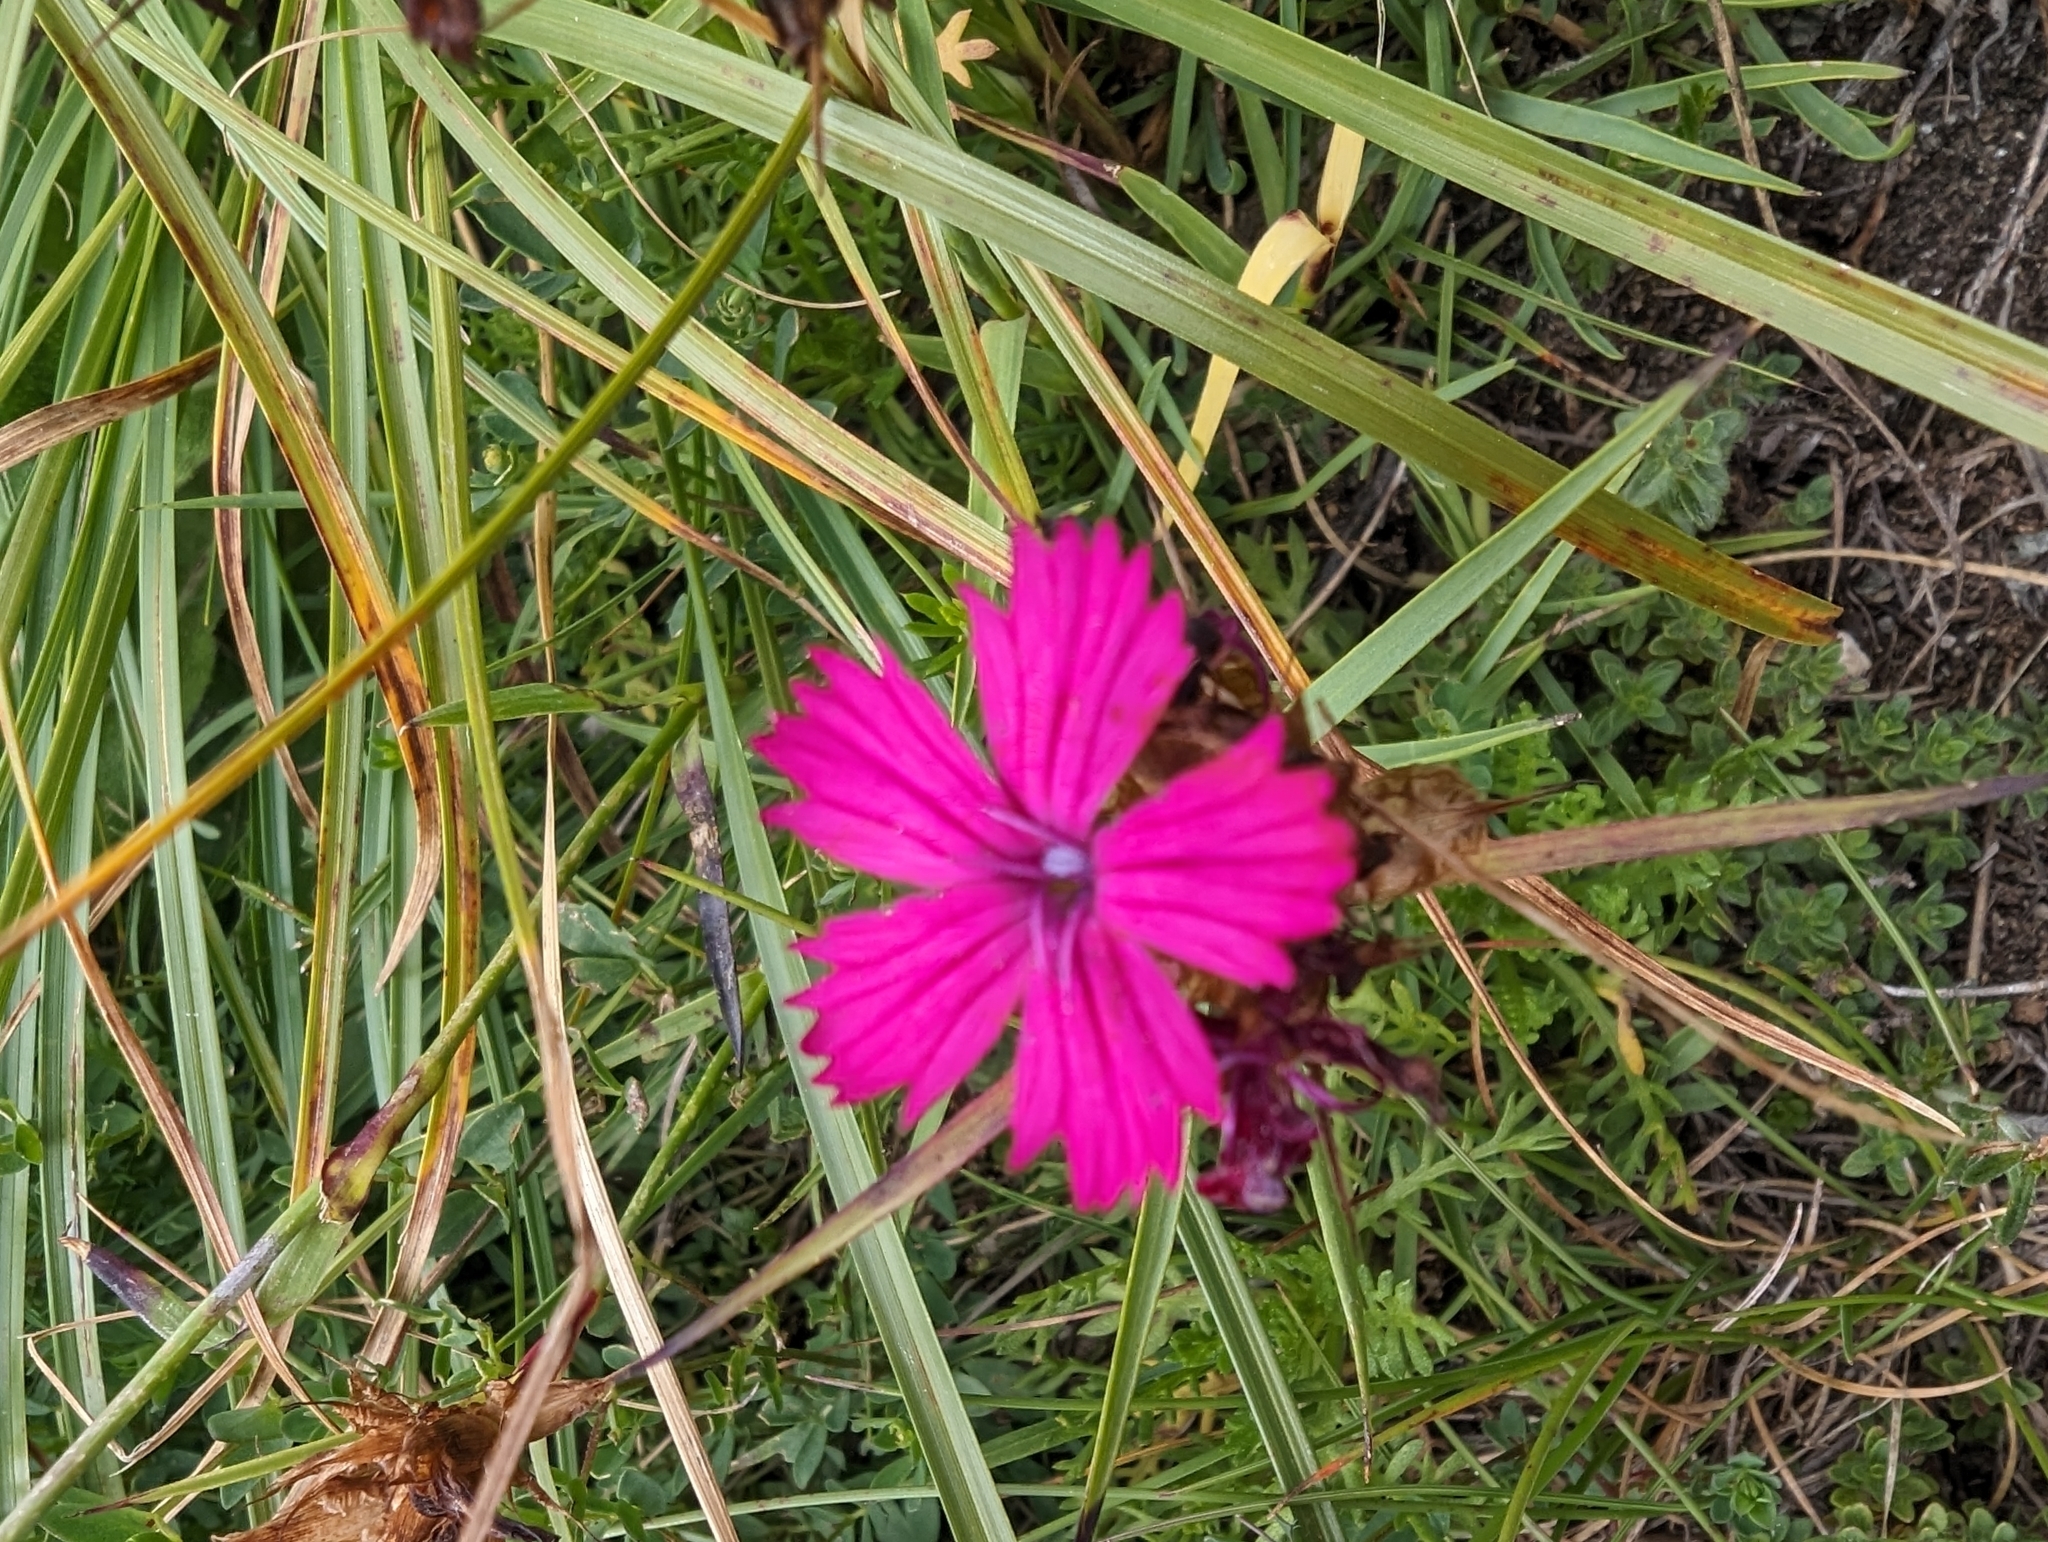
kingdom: Plantae
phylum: Tracheophyta
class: Magnoliopsida
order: Caryophyllales
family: Caryophyllaceae
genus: Dianthus
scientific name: Dianthus carthusianorum
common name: Carthusian pink
